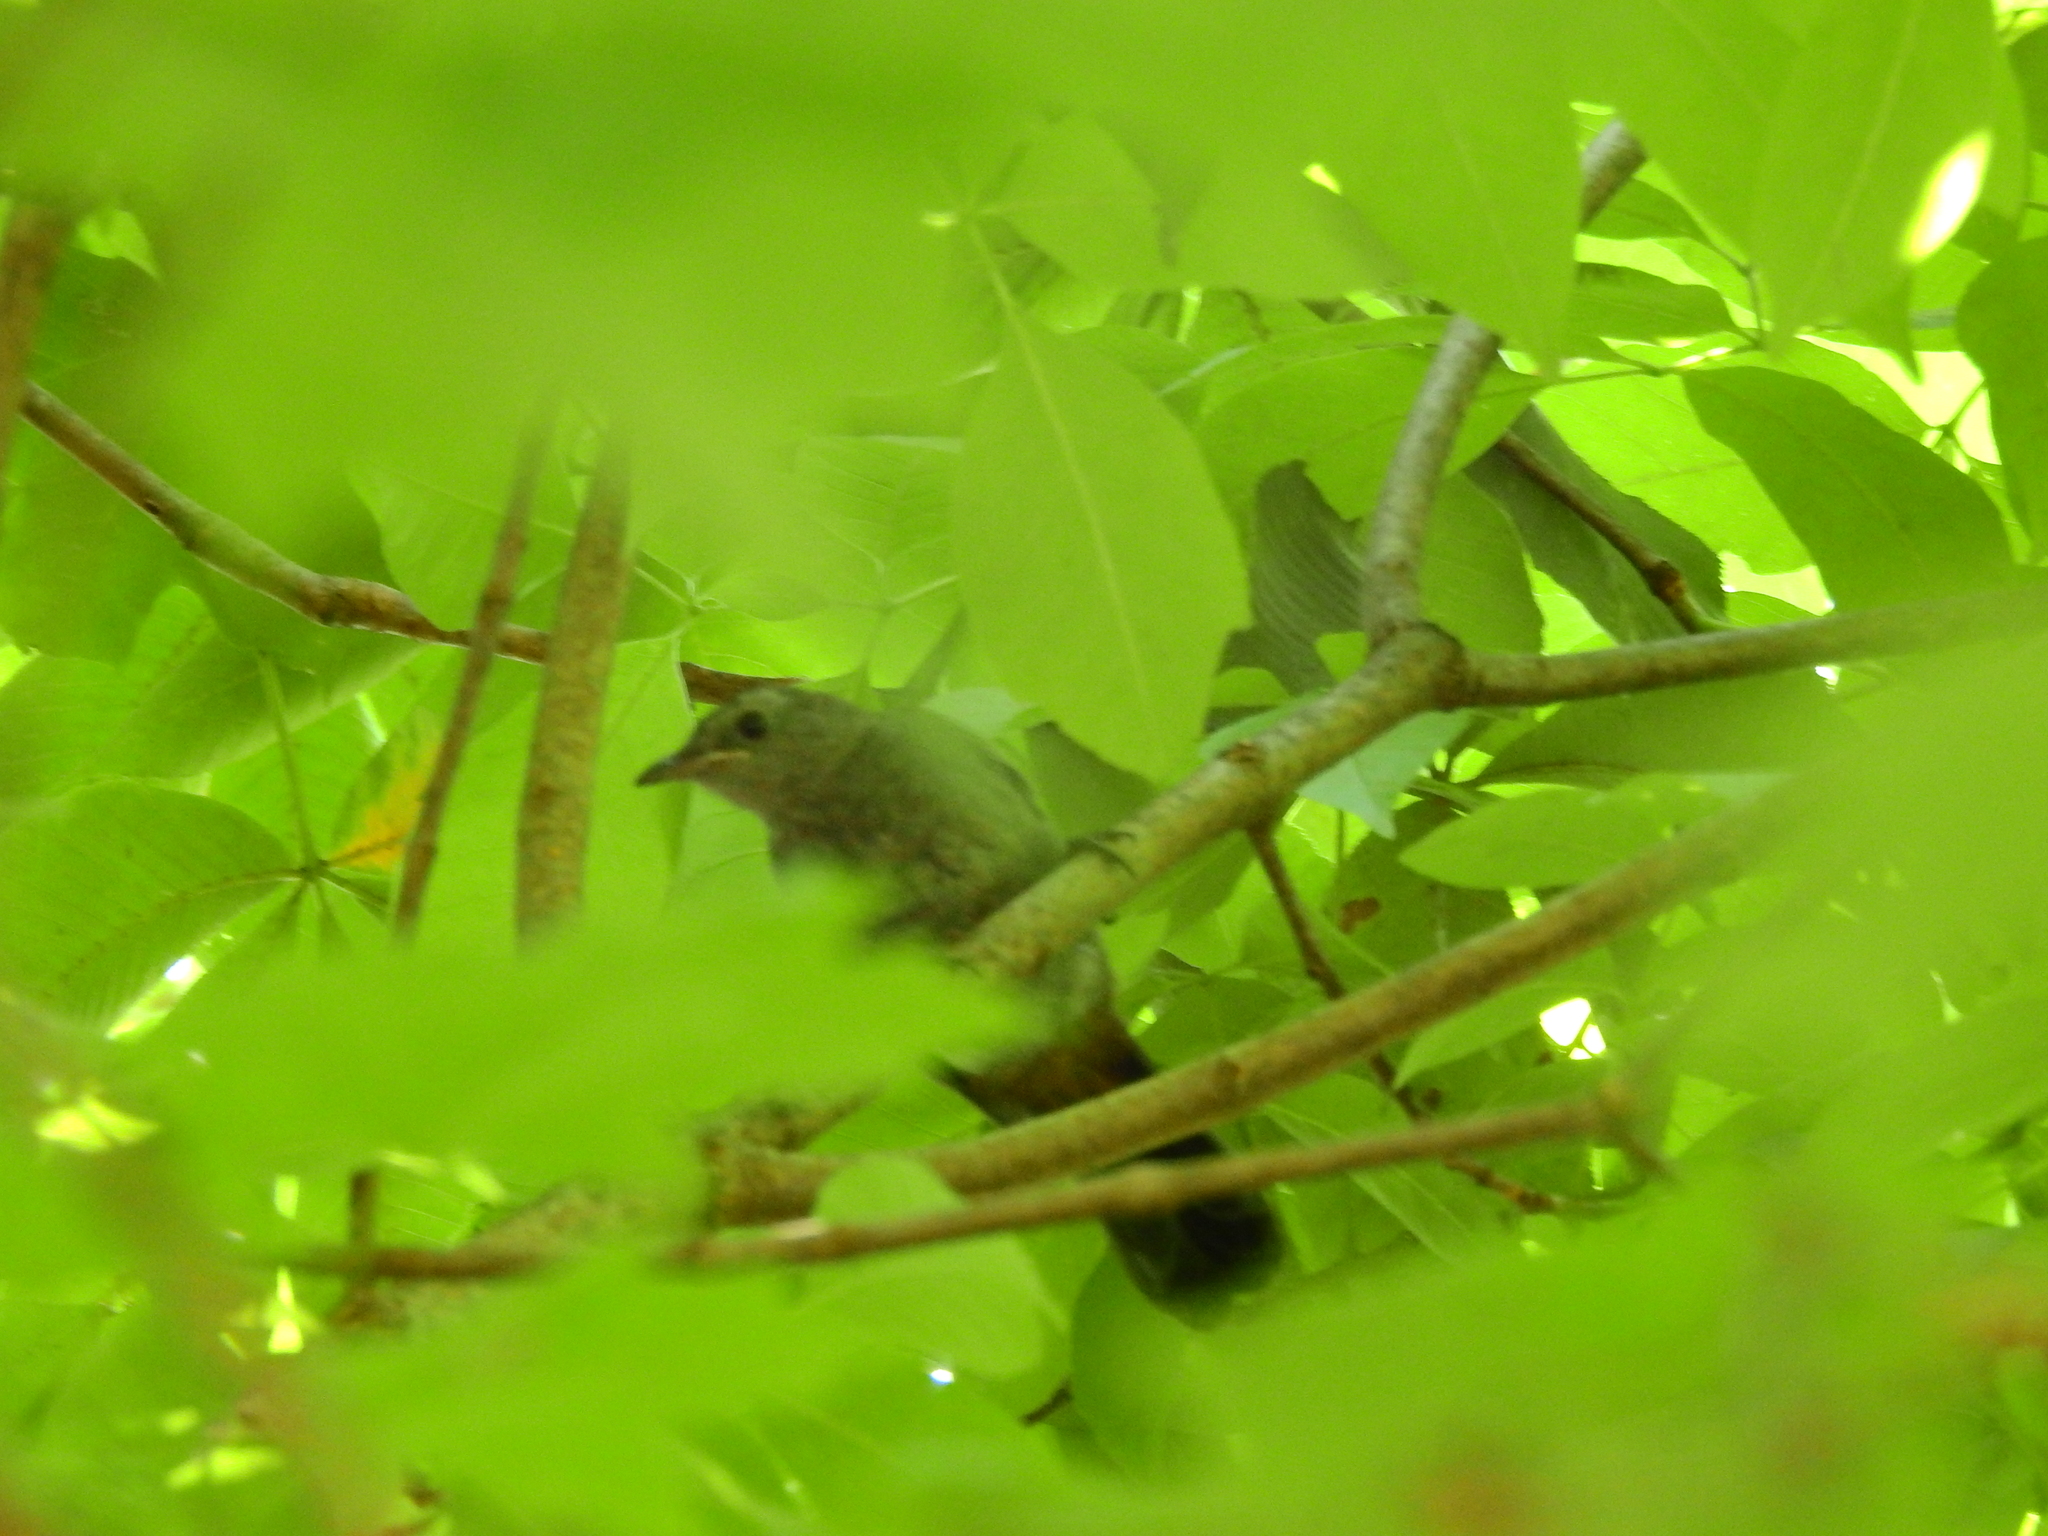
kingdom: Animalia
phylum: Chordata
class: Aves
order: Passeriformes
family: Mimidae
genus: Dumetella
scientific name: Dumetella carolinensis
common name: Gray catbird
